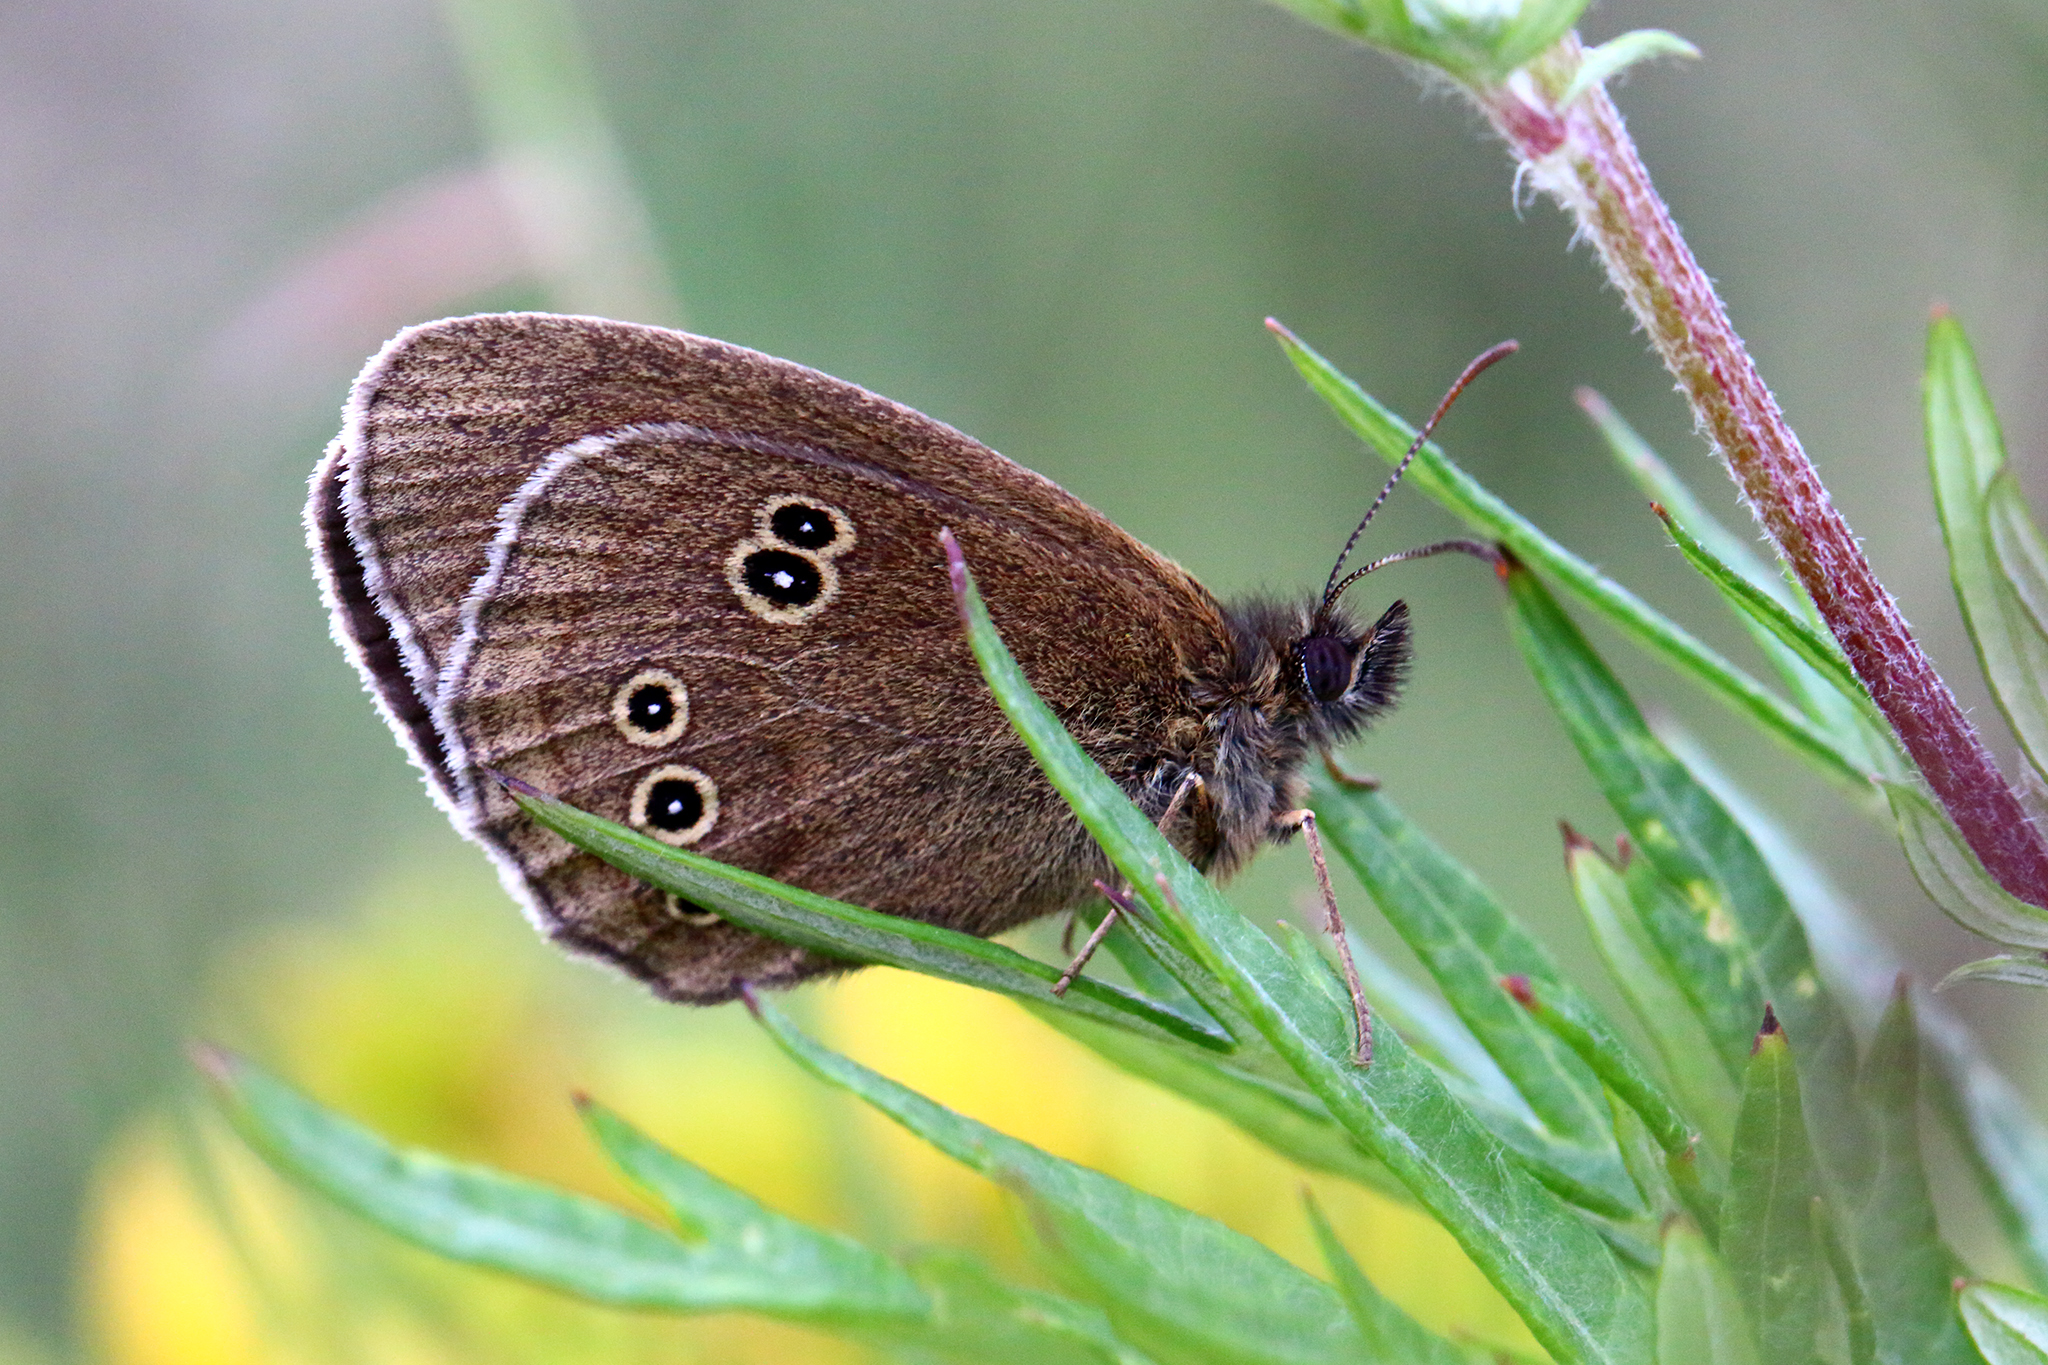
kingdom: Animalia
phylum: Arthropoda
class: Insecta
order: Lepidoptera
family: Nymphalidae
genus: Aphantopus
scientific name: Aphantopus hyperantus
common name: Ringlet
